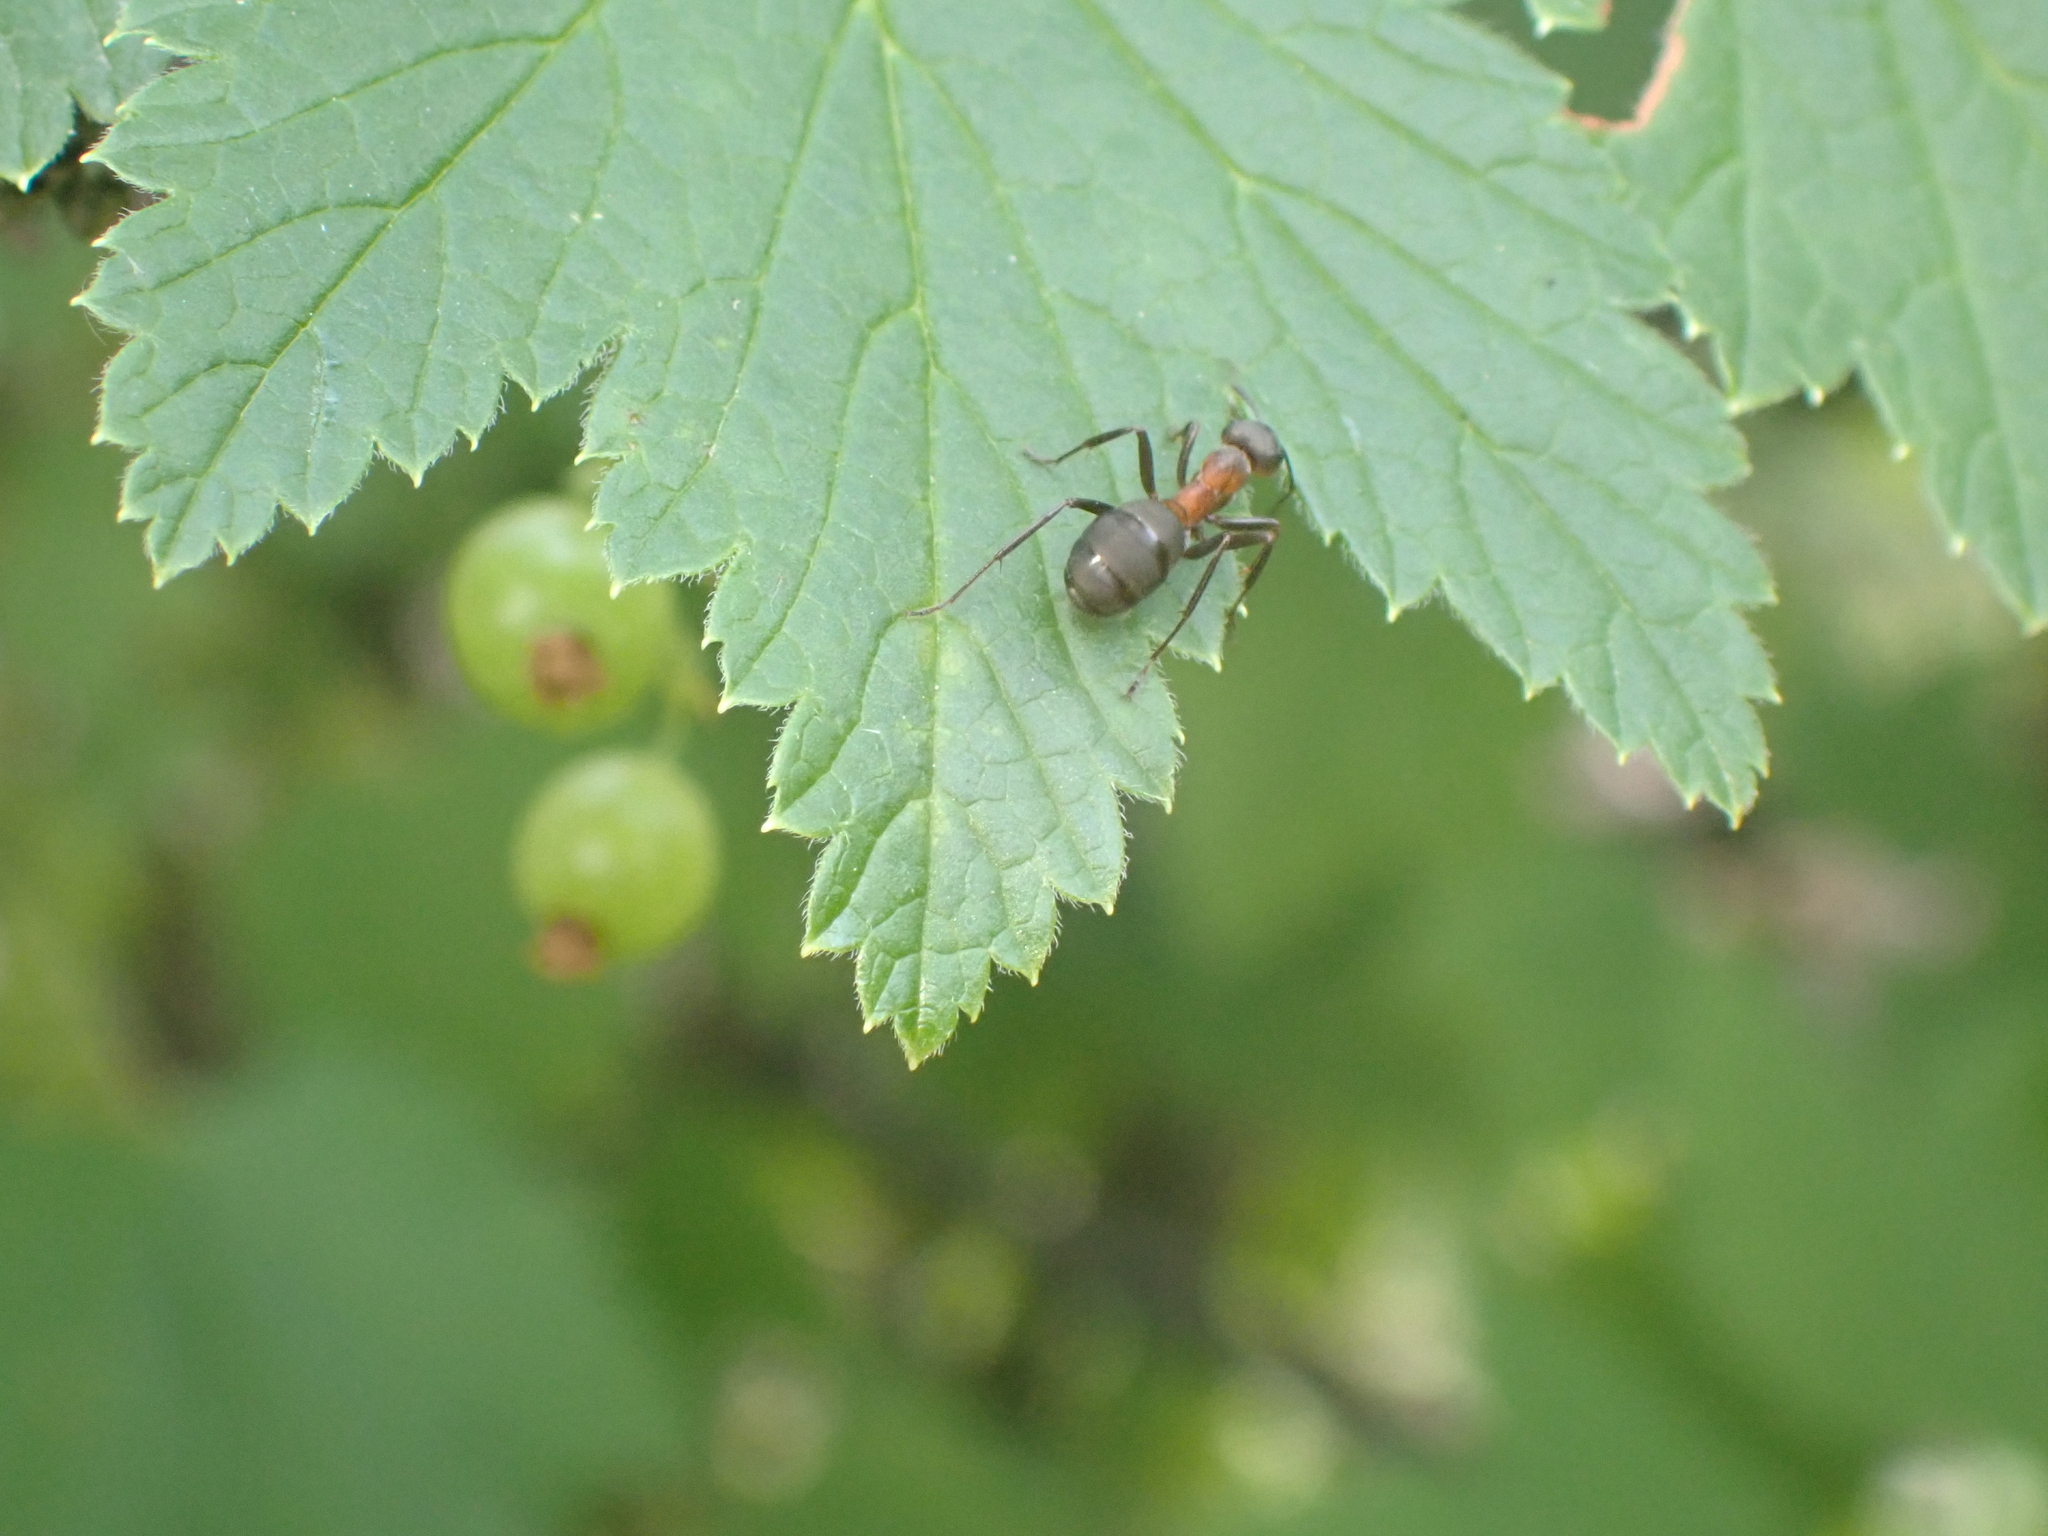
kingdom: Animalia
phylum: Arthropoda
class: Insecta
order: Hymenoptera
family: Formicidae
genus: Formica
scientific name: Formica
